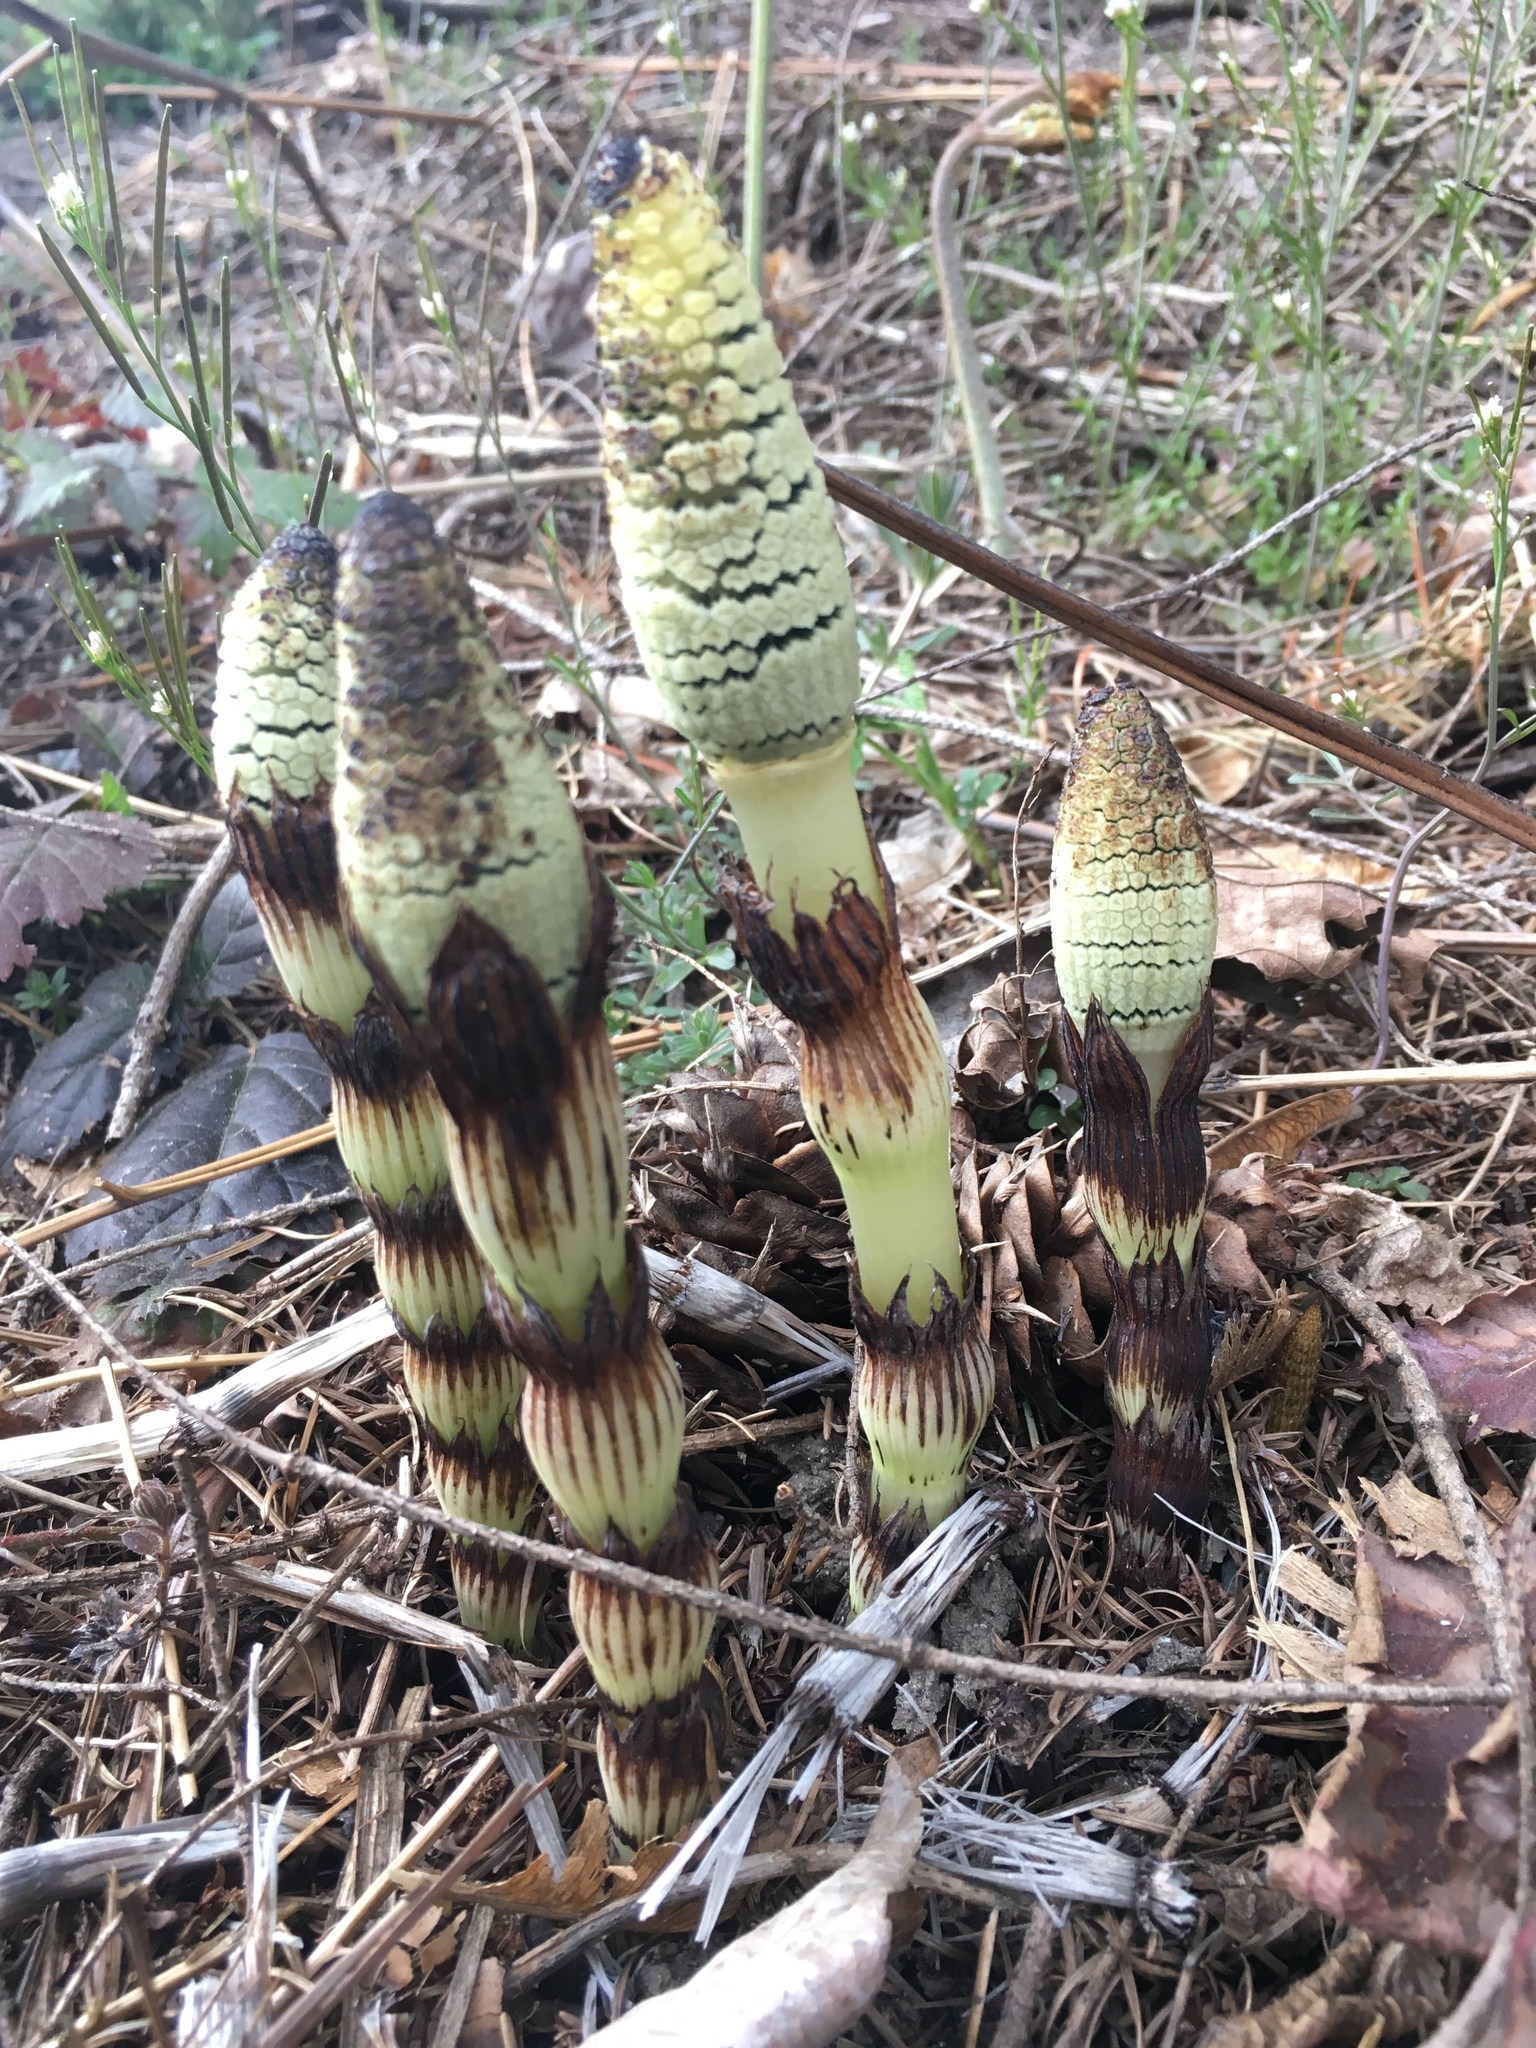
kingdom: Plantae
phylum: Tracheophyta
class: Polypodiopsida
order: Equisetales
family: Equisetaceae
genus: Equisetum
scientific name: Equisetum braunii
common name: Braun's horsetail
